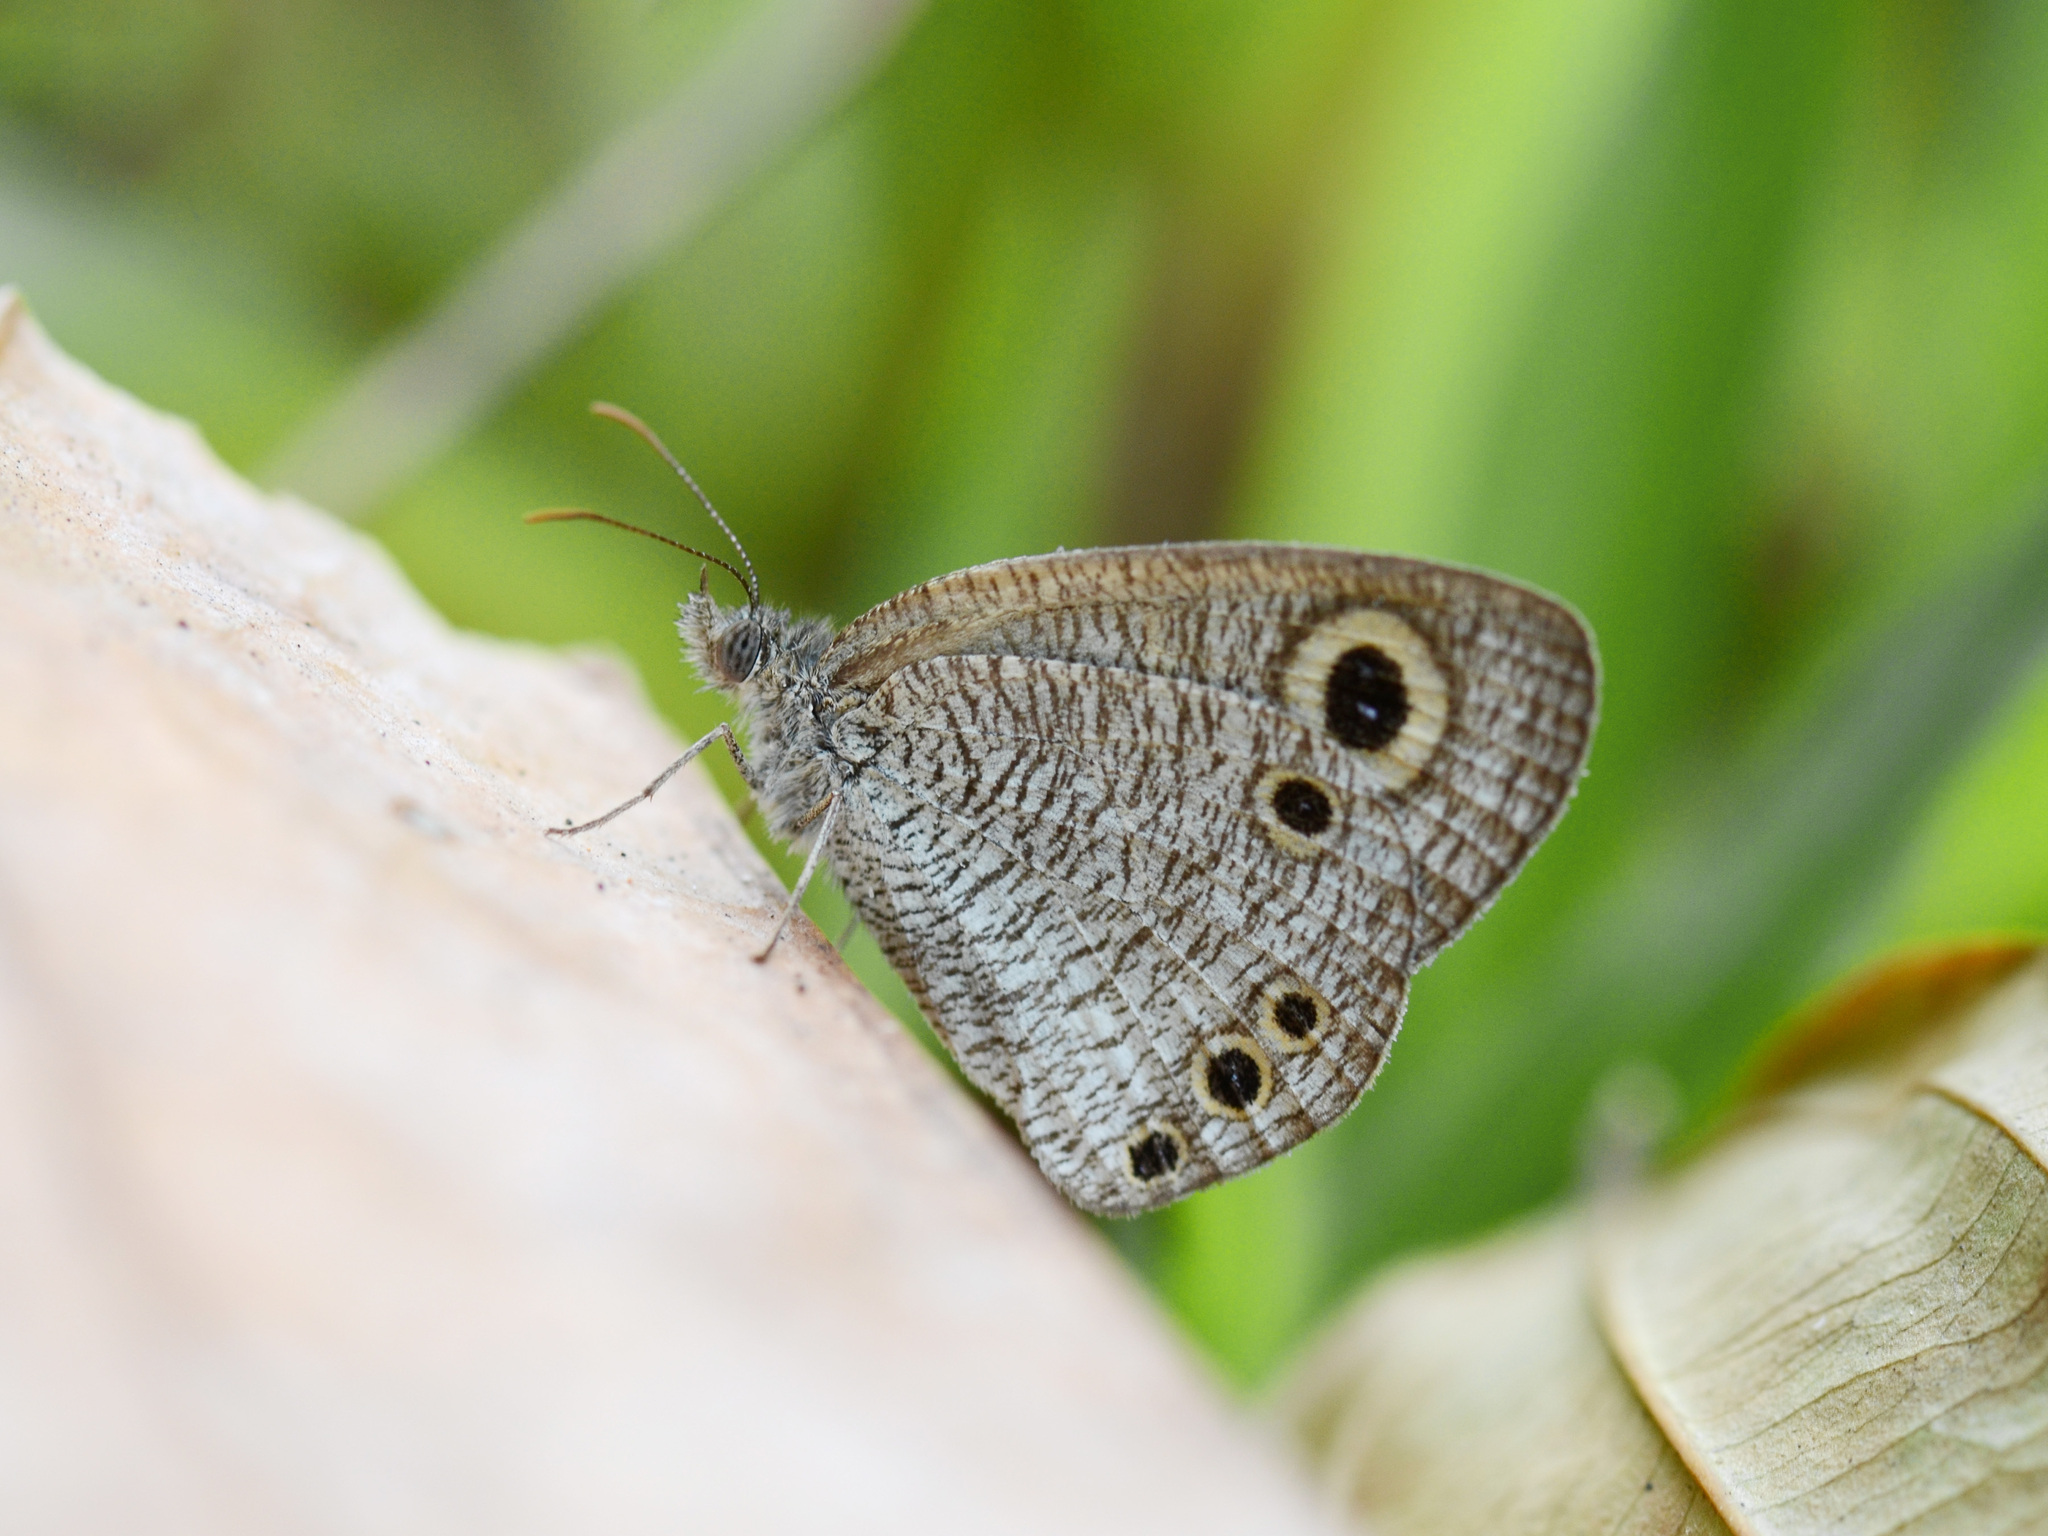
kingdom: Animalia
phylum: Arthropoda
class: Insecta
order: Lepidoptera
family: Nymphalidae
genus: Ypthima
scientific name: Ypthima huebneri
